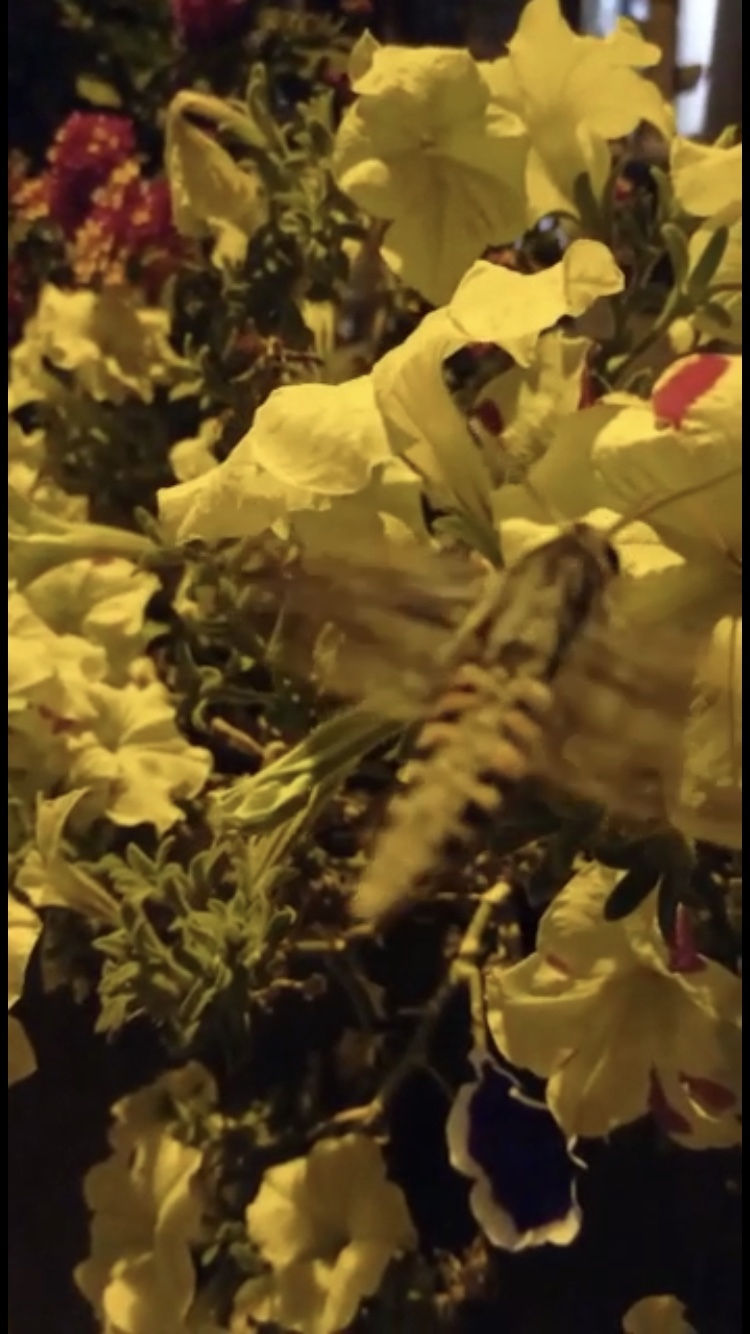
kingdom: Animalia
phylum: Arthropoda
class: Insecta
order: Lepidoptera
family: Sphingidae
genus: Agrius
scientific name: Agrius convolvuli
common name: Convolvulus hawkmoth
